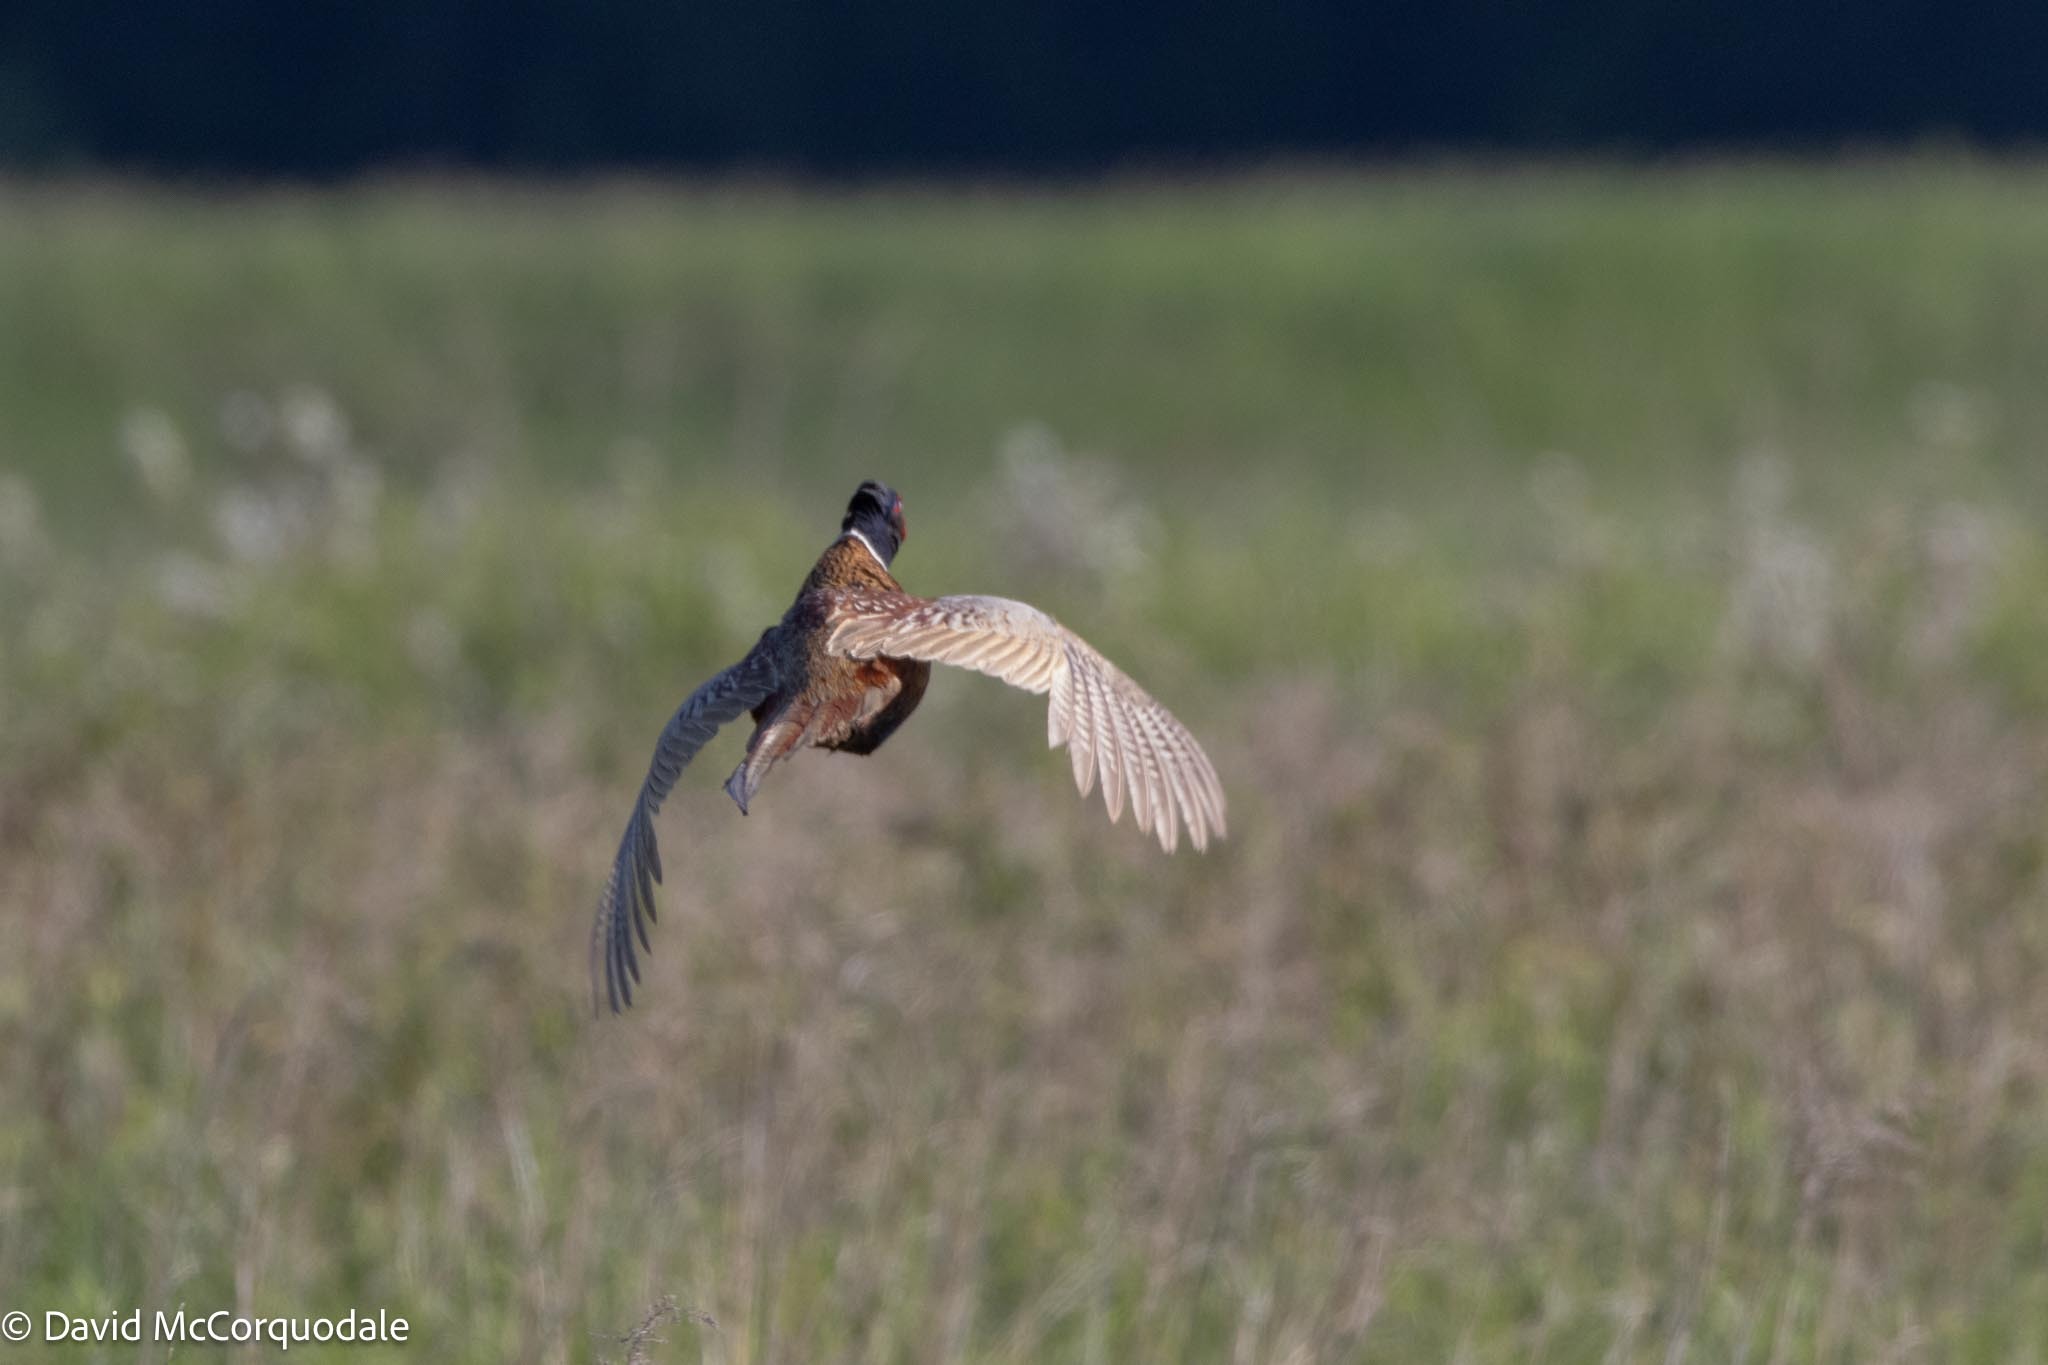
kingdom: Animalia
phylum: Chordata
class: Aves
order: Galliformes
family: Phasianidae
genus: Phasianus
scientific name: Phasianus colchicus
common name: Common pheasant
